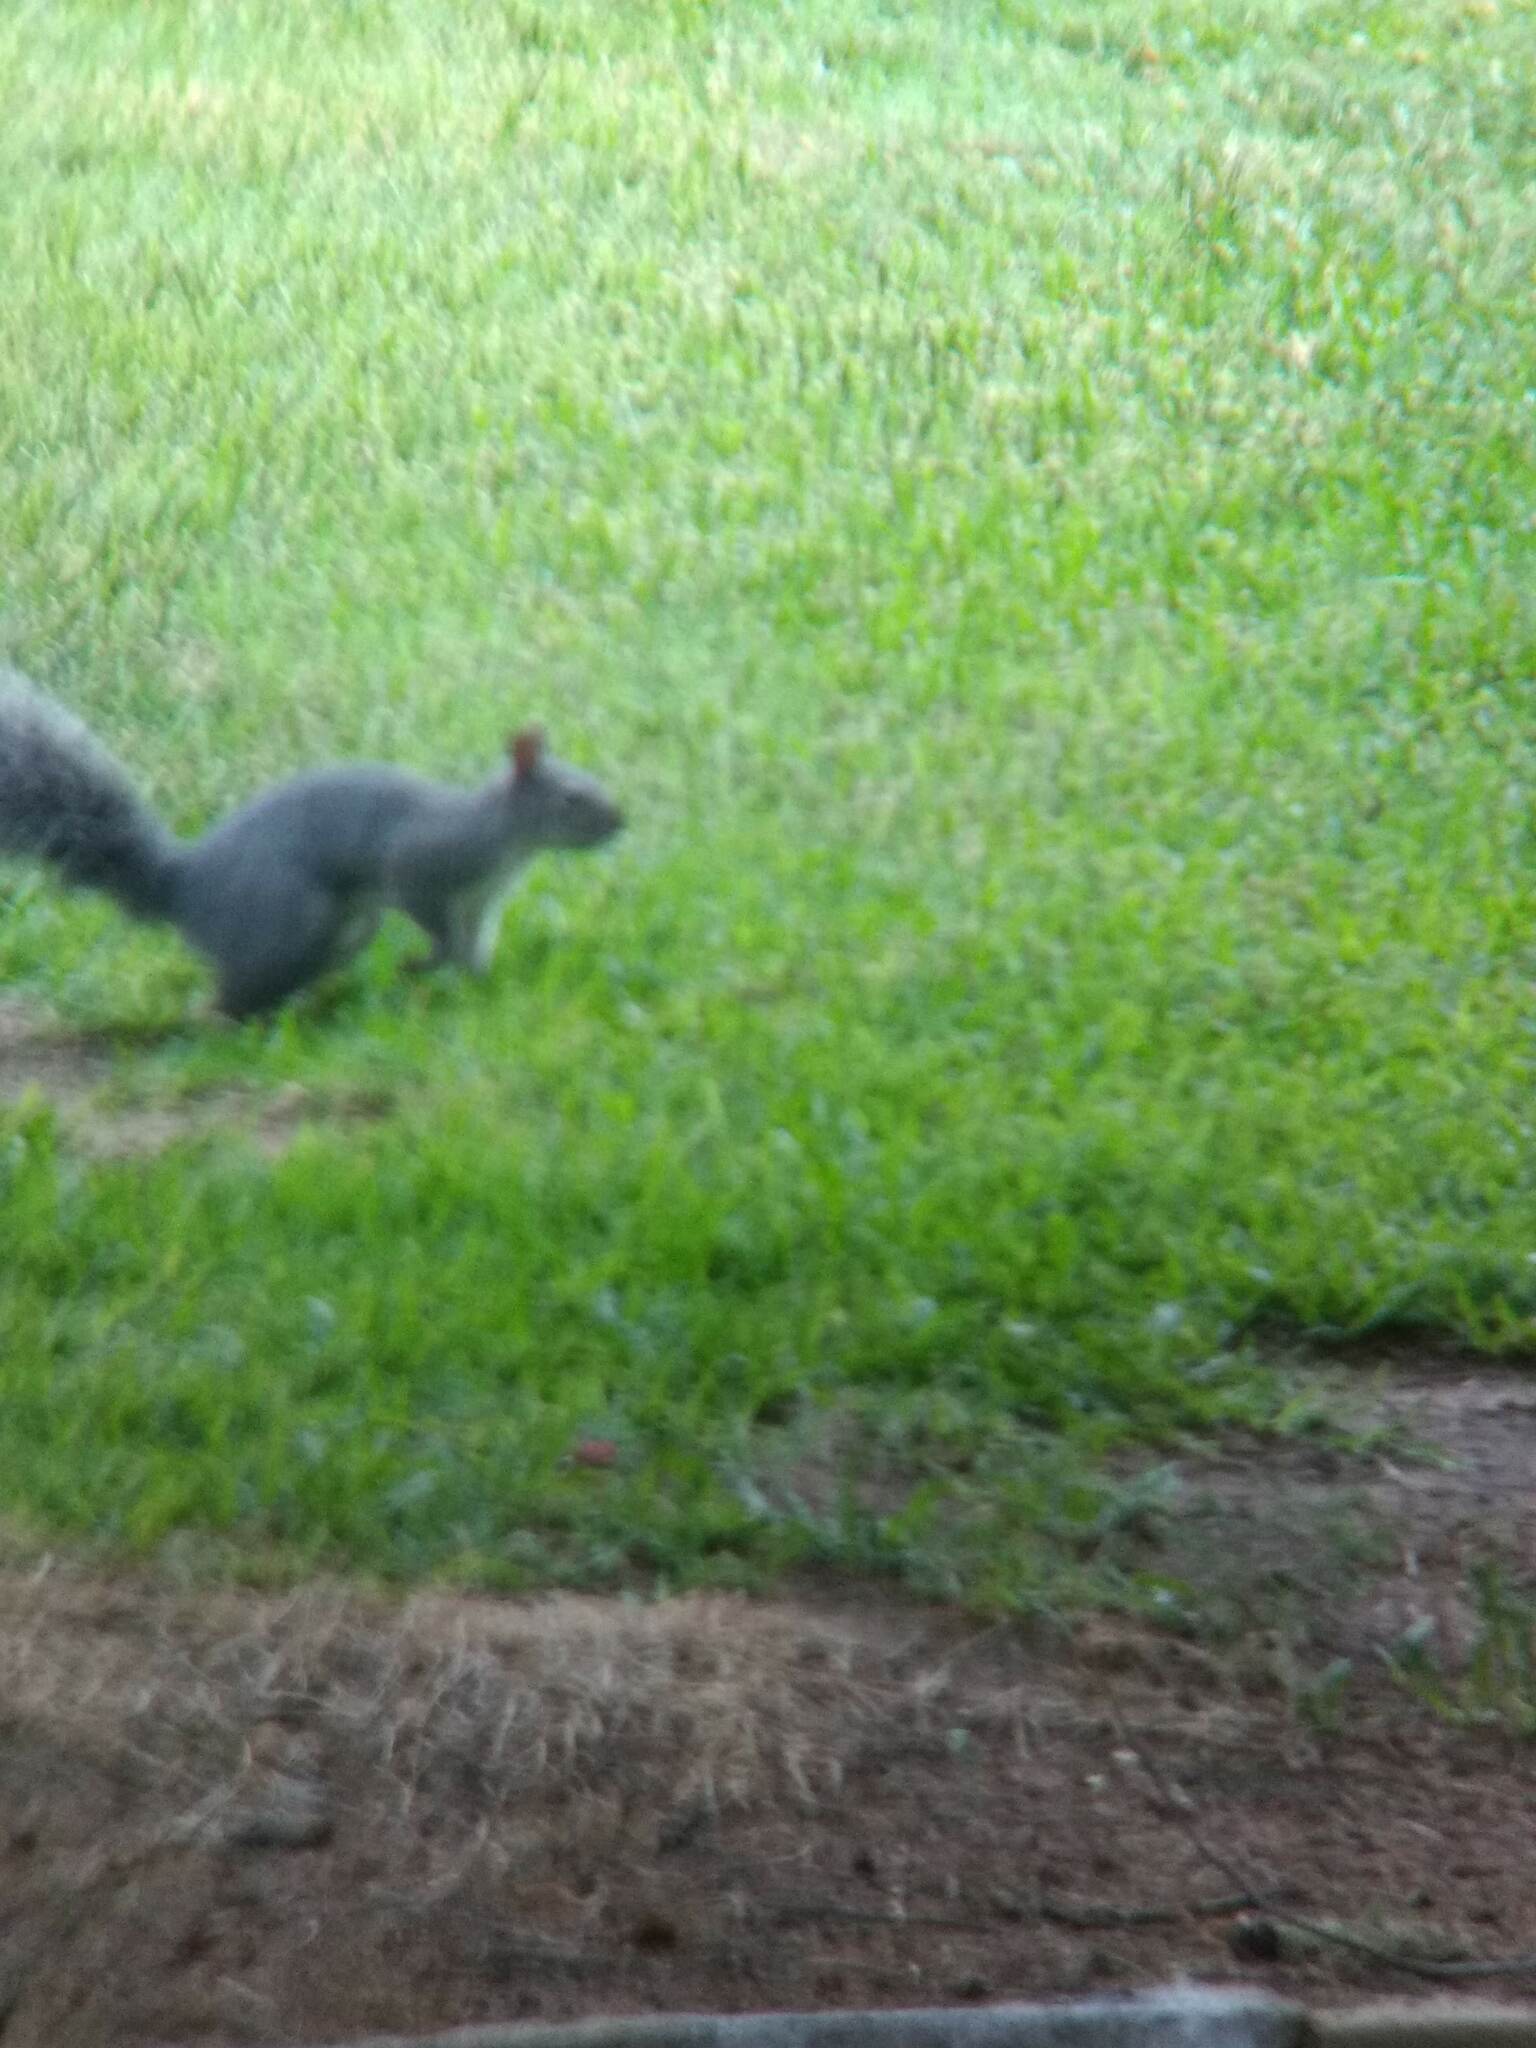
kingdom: Animalia
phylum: Chordata
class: Mammalia
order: Rodentia
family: Sciuridae
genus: Sciurus
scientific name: Sciurus griseus
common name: Western gray squirrel
